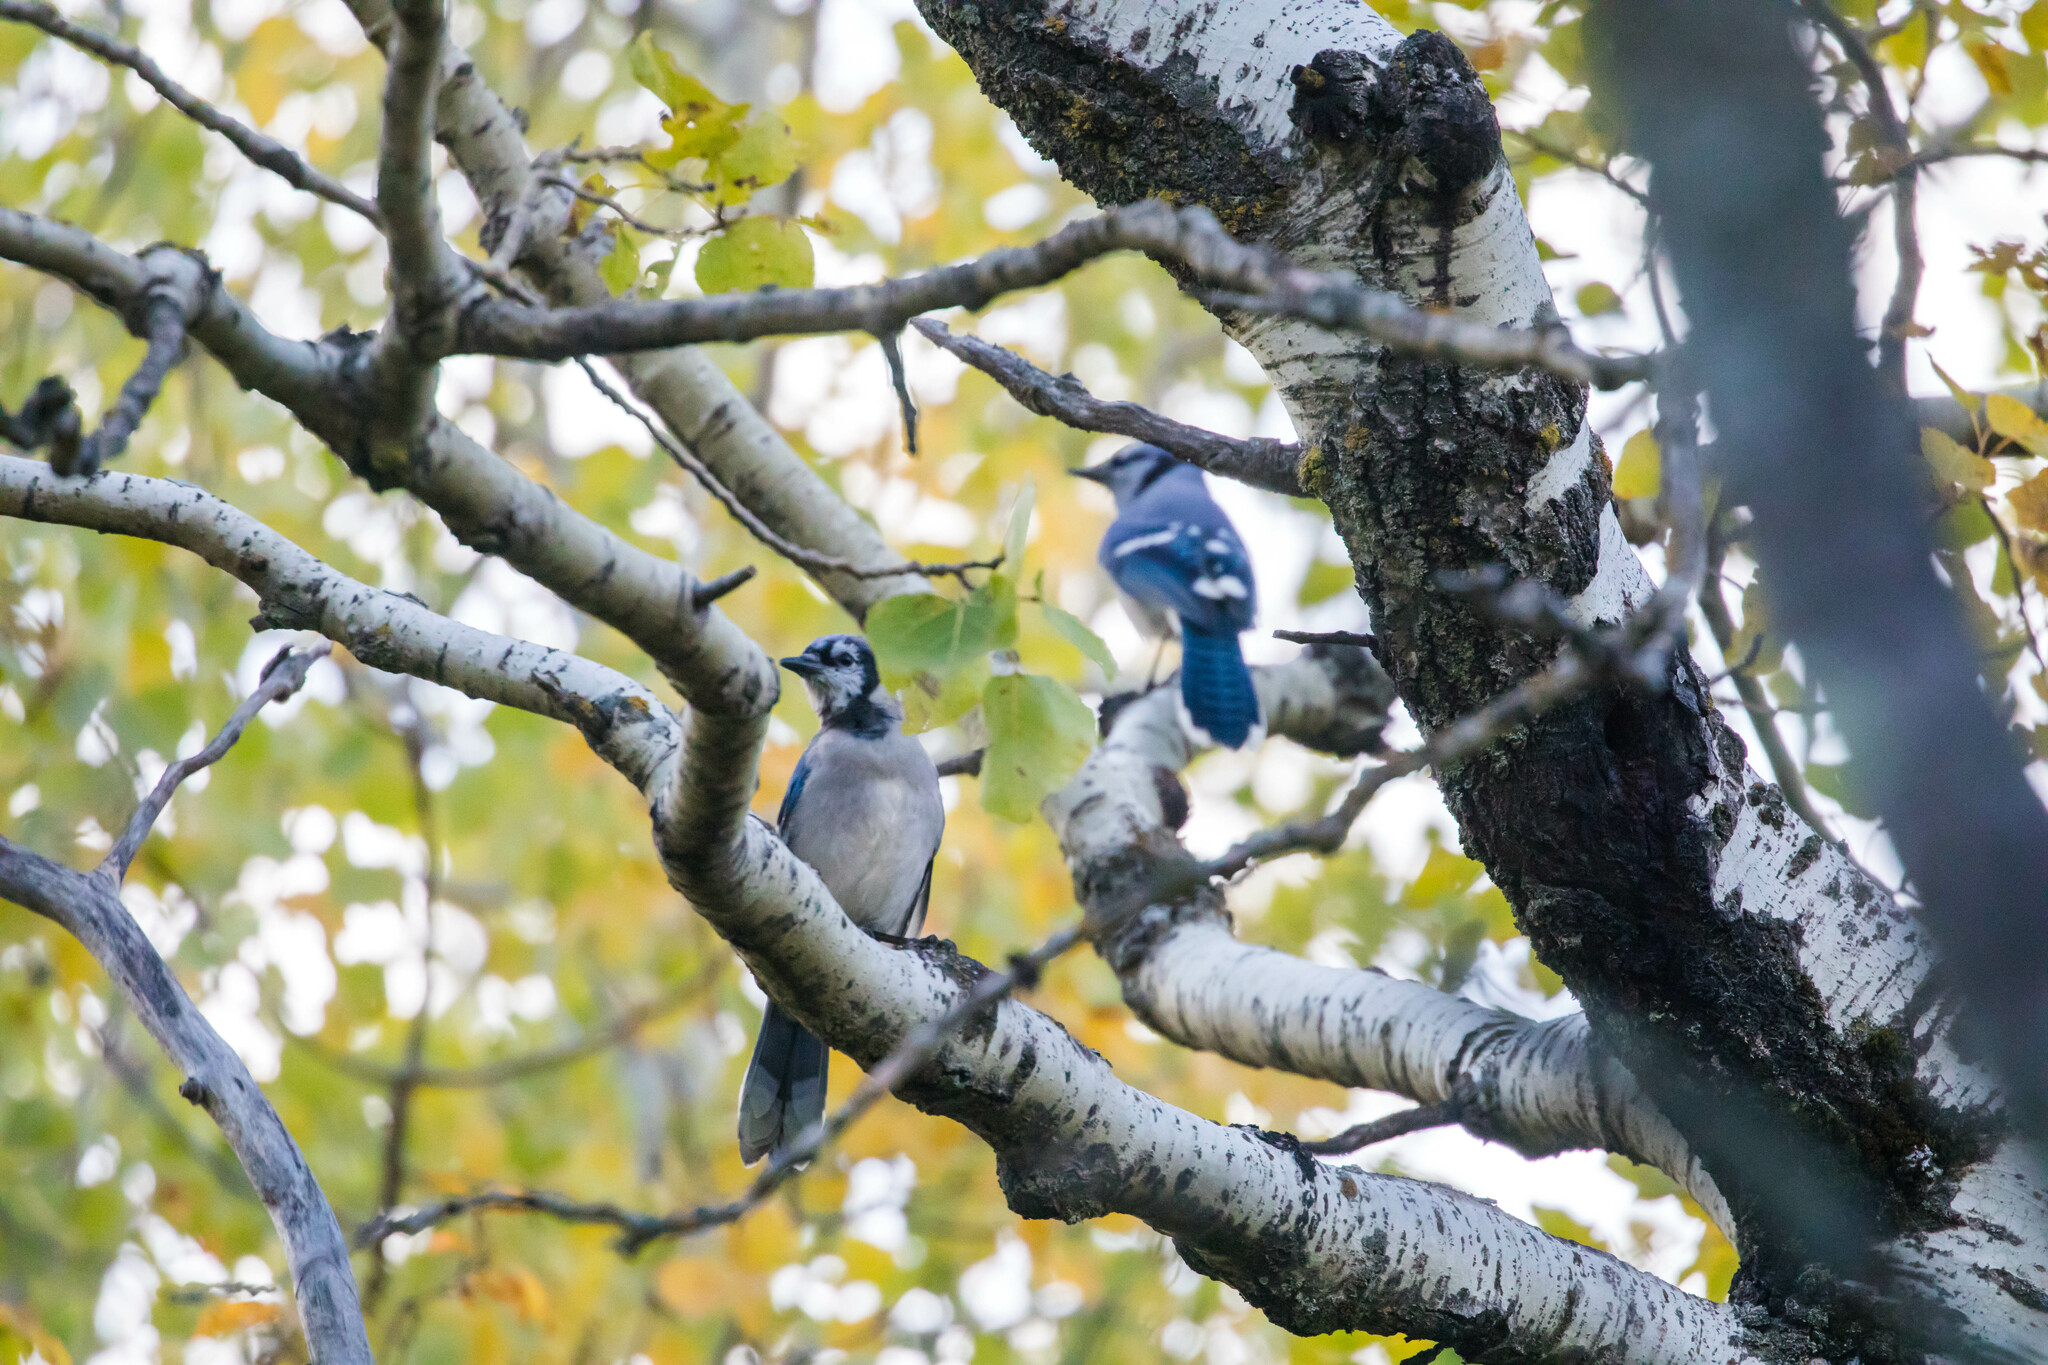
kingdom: Animalia
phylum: Chordata
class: Aves
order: Passeriformes
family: Corvidae
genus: Cyanocitta
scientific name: Cyanocitta cristata
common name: Blue jay
